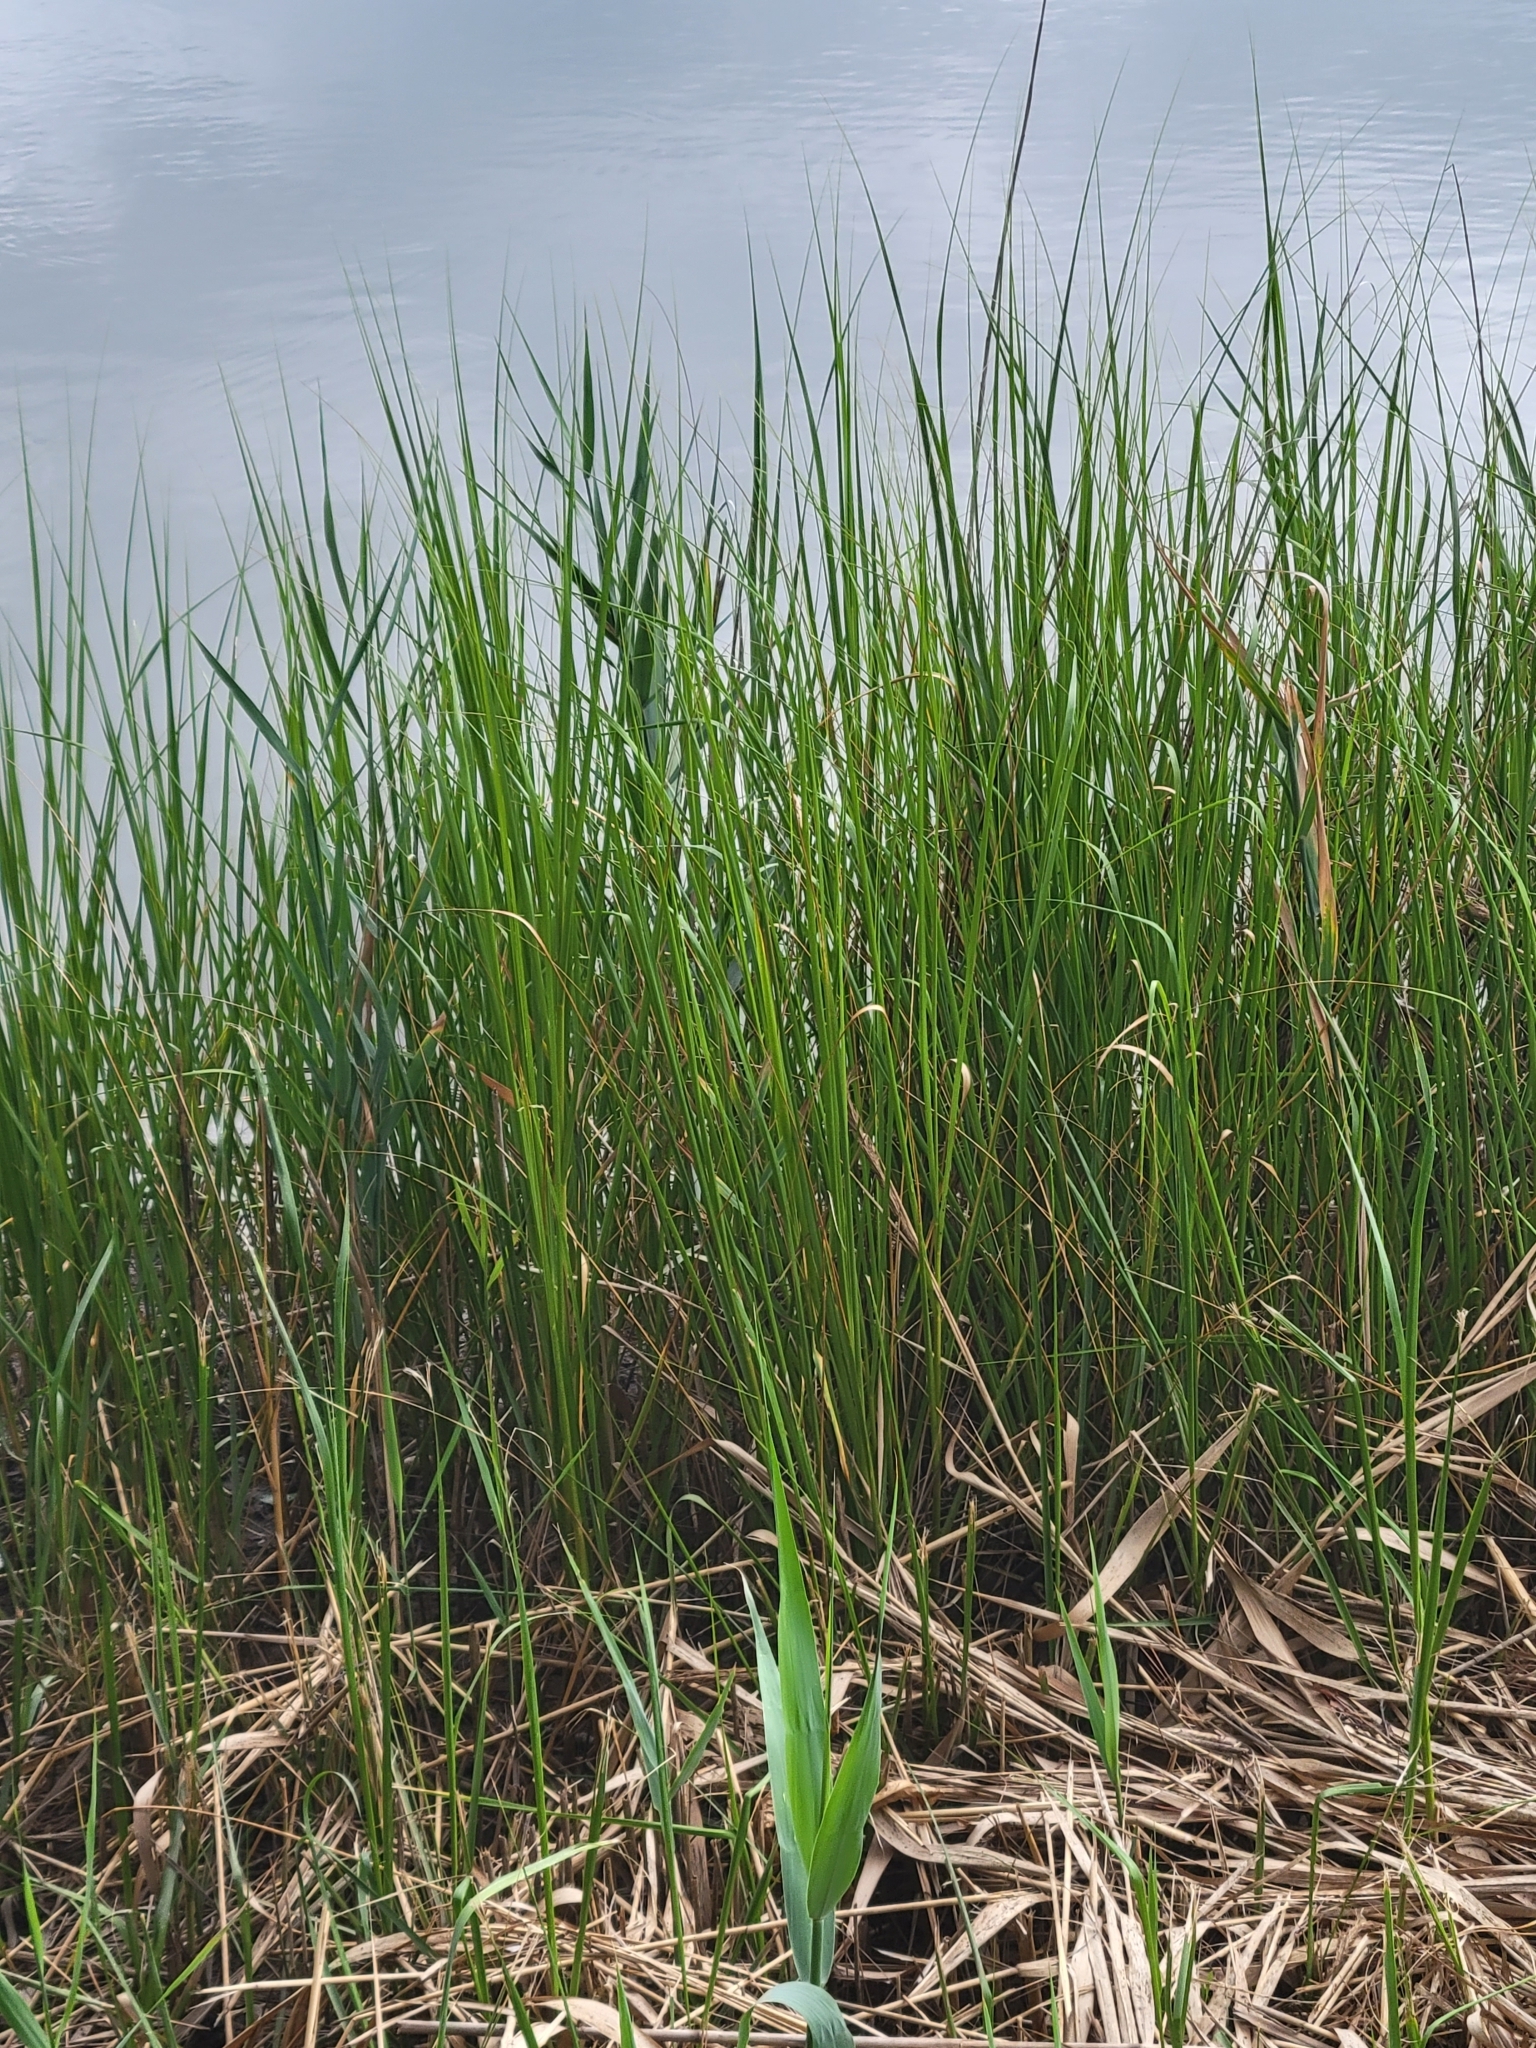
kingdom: Plantae
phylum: Tracheophyta
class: Liliopsida
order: Poales
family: Poaceae
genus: Sporobolus
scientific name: Sporobolus alterniflorus
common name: Atlantic cordgrass
